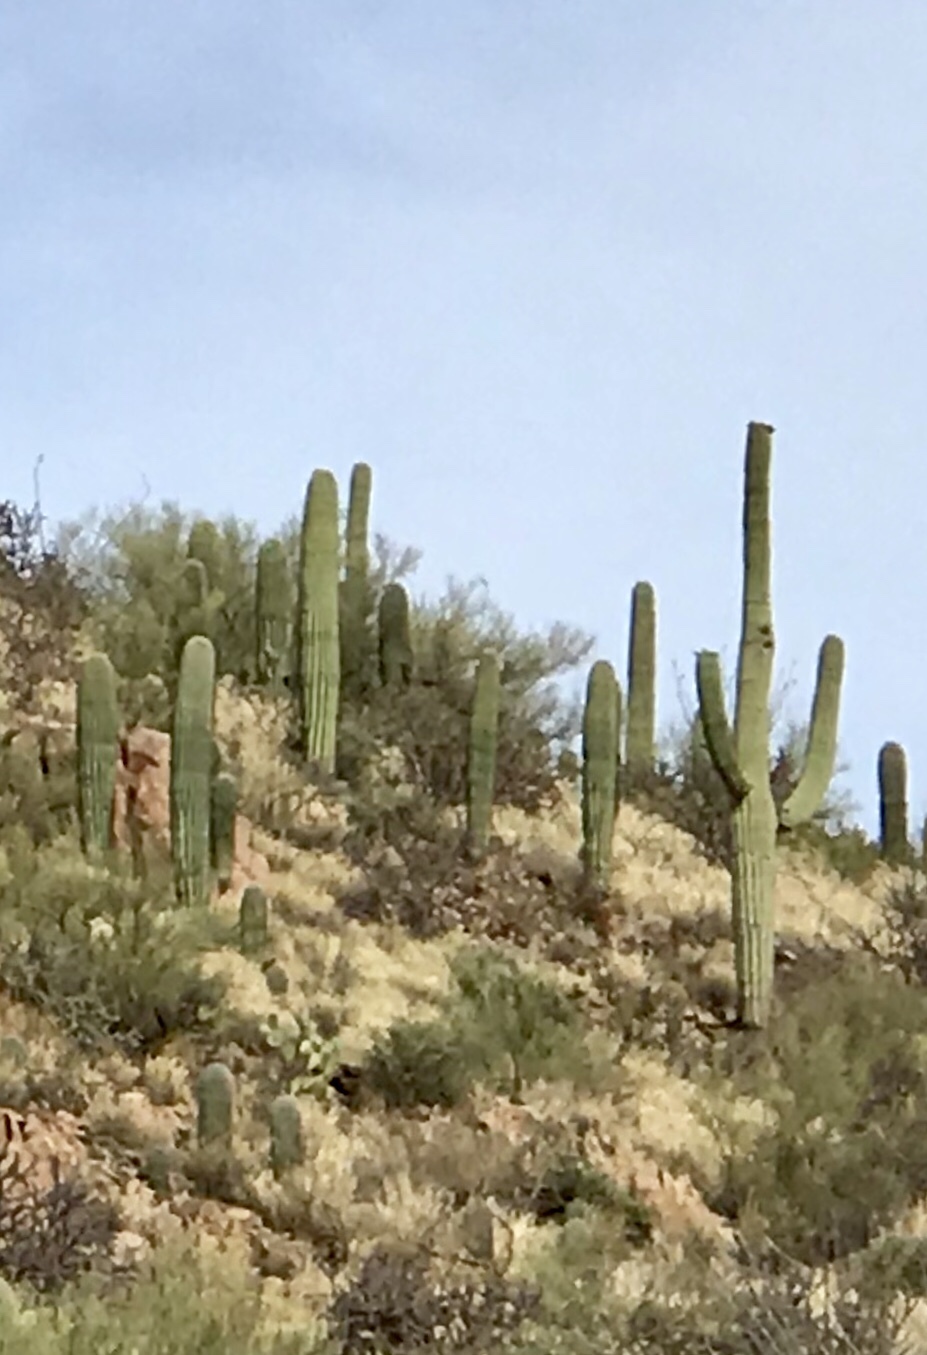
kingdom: Plantae
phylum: Tracheophyta
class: Magnoliopsida
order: Caryophyllales
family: Cactaceae
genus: Carnegiea
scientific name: Carnegiea gigantea
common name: Saguaro
